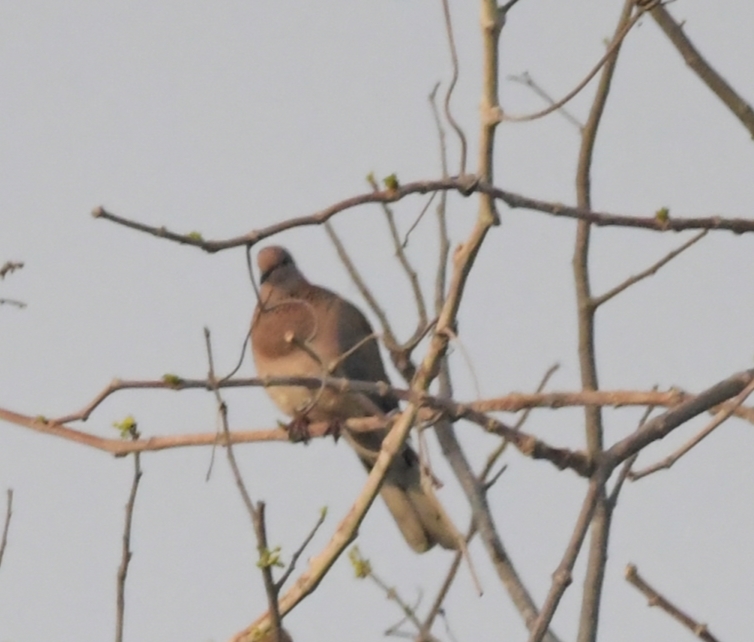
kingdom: Animalia
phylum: Chordata
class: Aves
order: Columbiformes
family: Columbidae
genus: Spilopelia
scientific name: Spilopelia senegalensis
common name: Laughing dove
